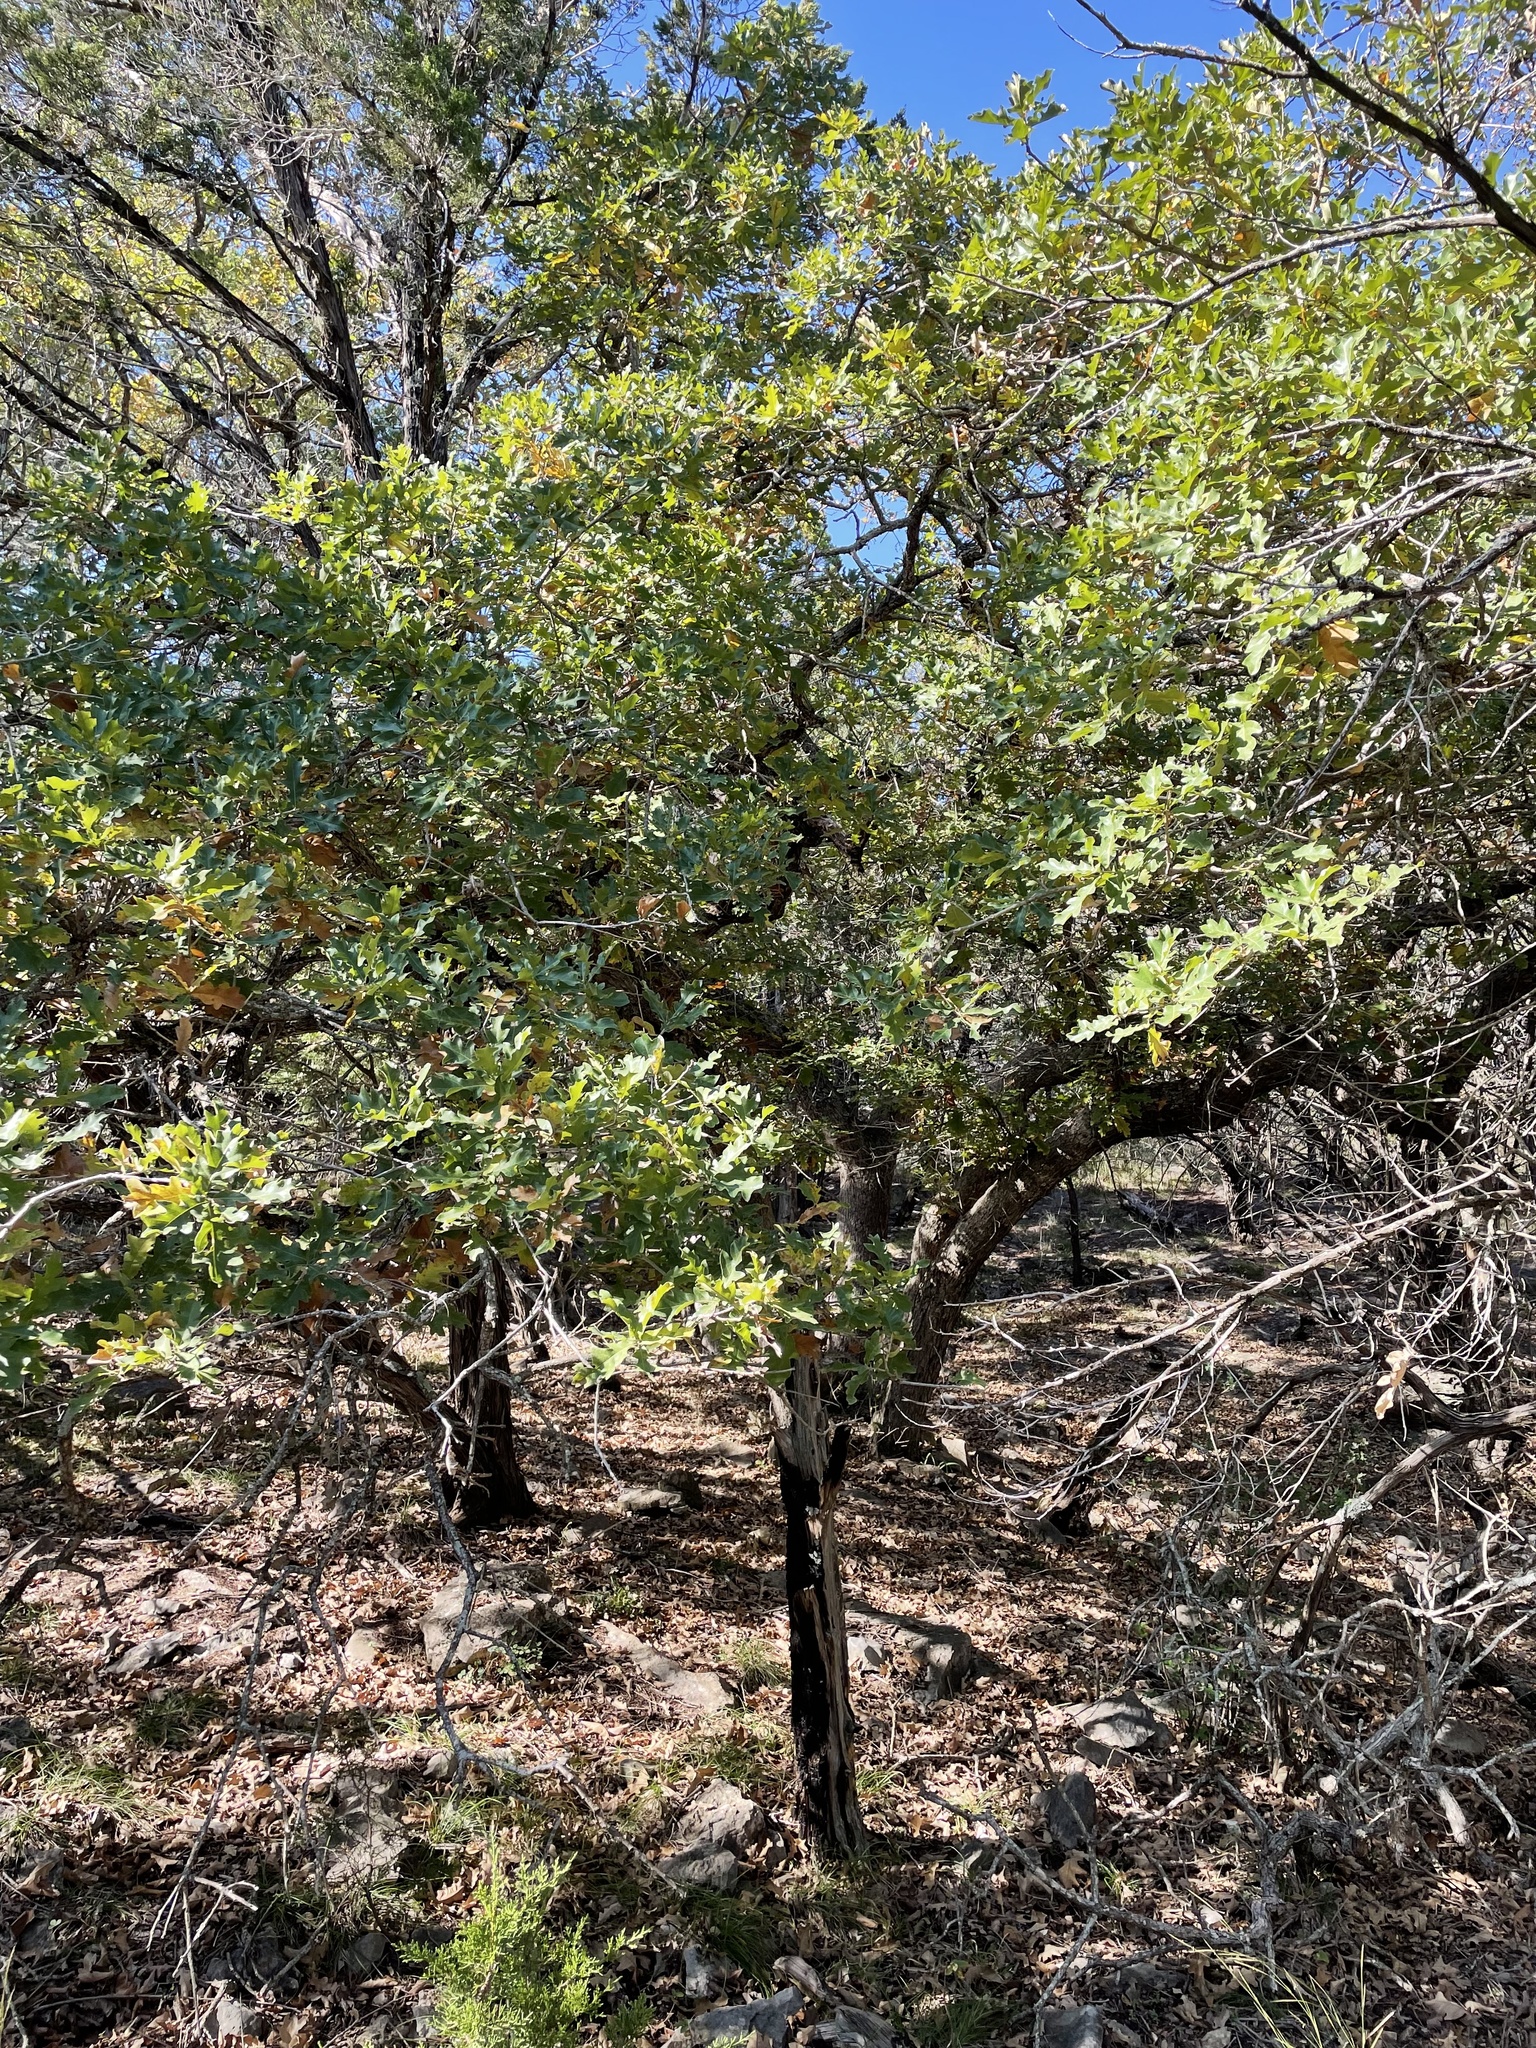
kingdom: Plantae
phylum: Tracheophyta
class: Magnoliopsida
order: Fagales
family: Fagaceae
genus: Quercus
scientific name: Quercus sinuata
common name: Durand oak
